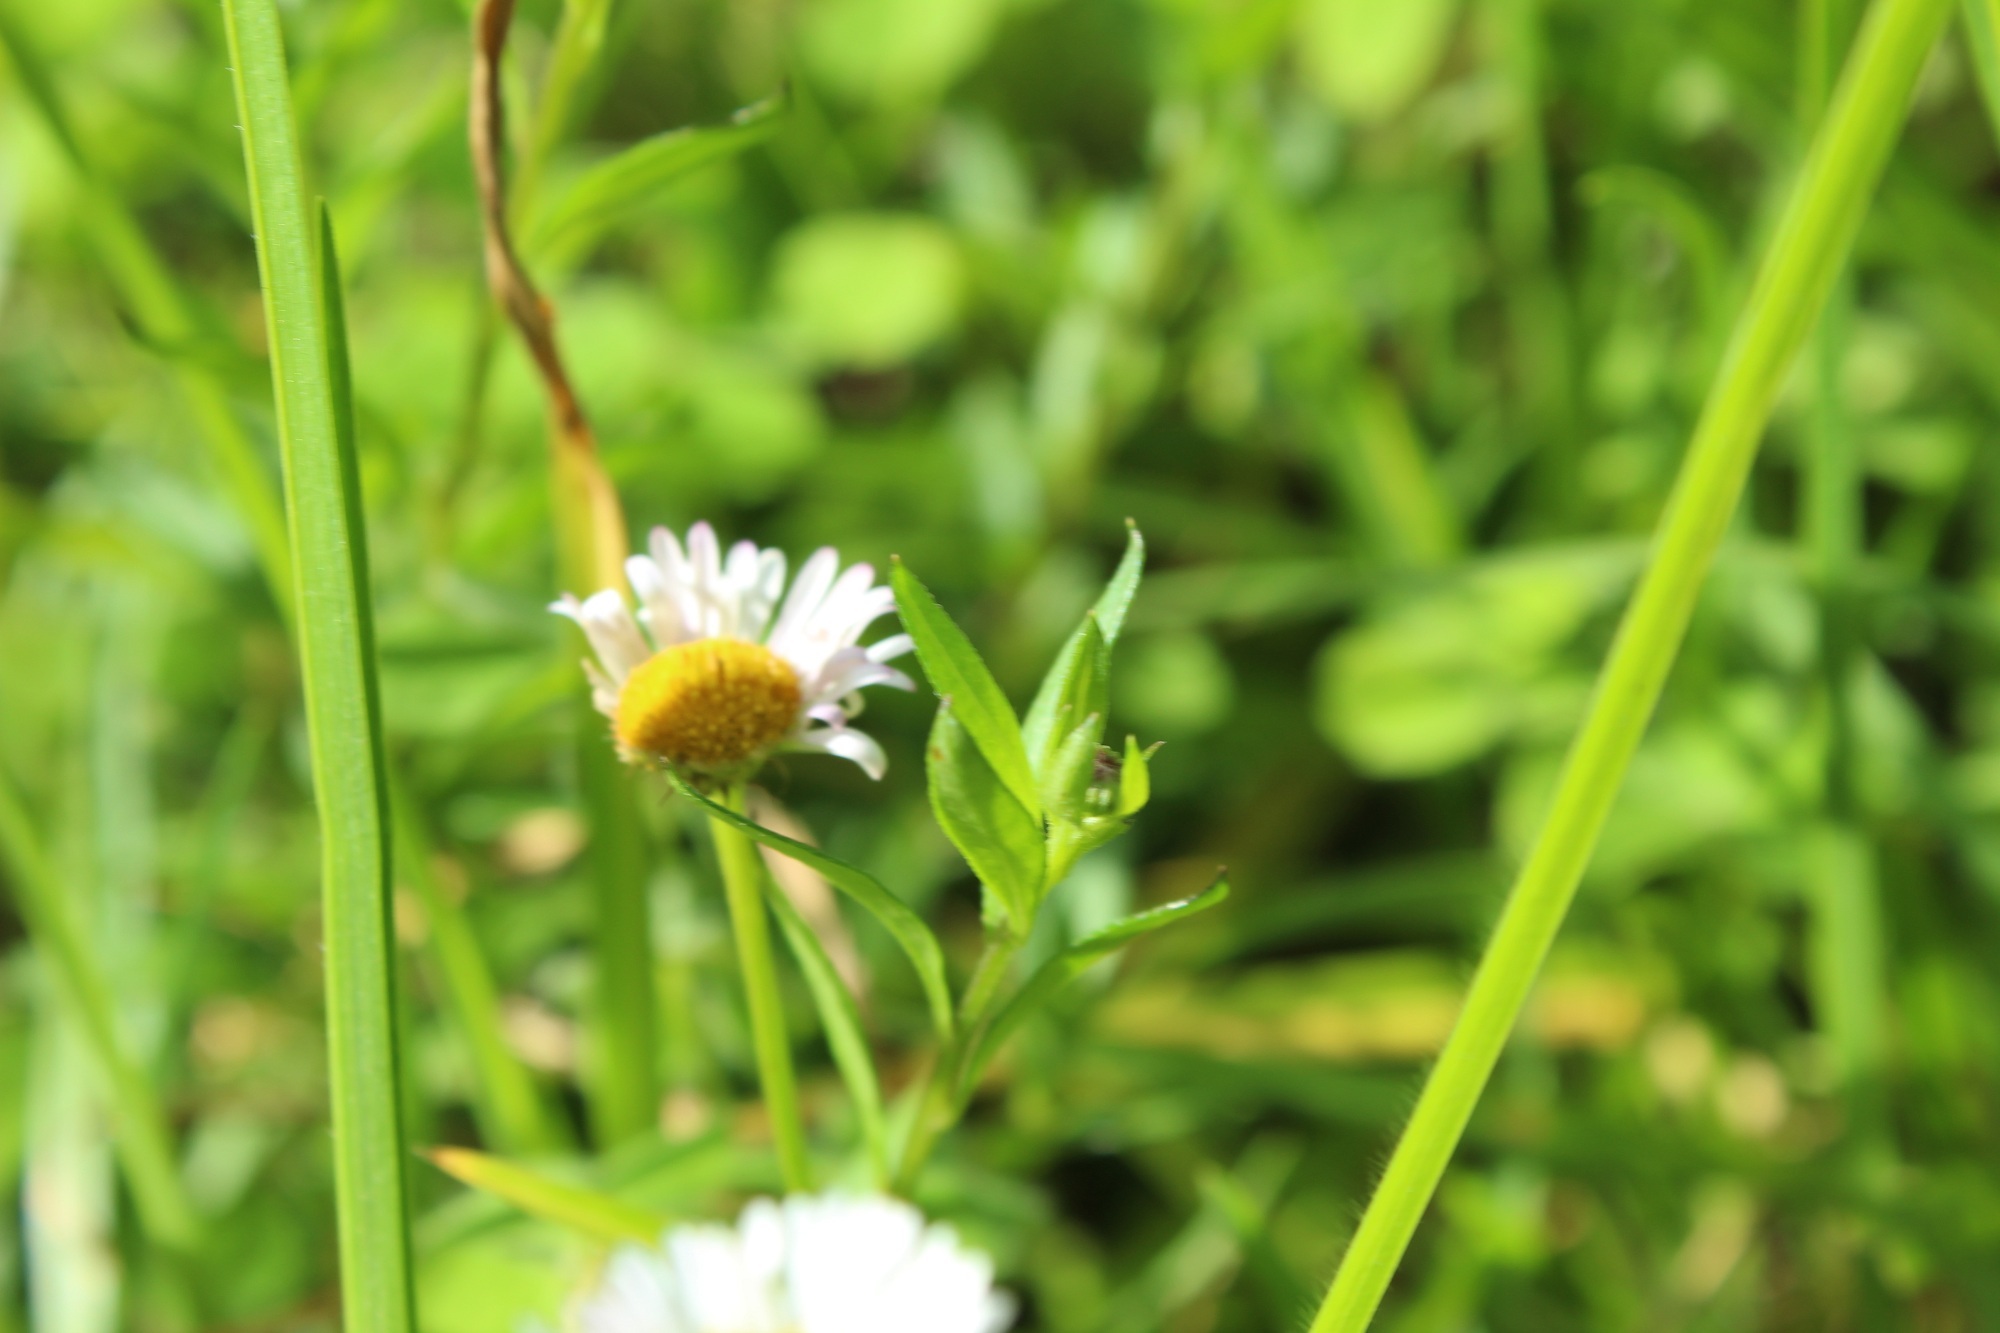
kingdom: Plantae
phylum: Tracheophyta
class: Magnoliopsida
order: Asterales
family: Asteraceae
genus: Erigeron
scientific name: Erigeron karvinskianus
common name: Mexican fleabane
